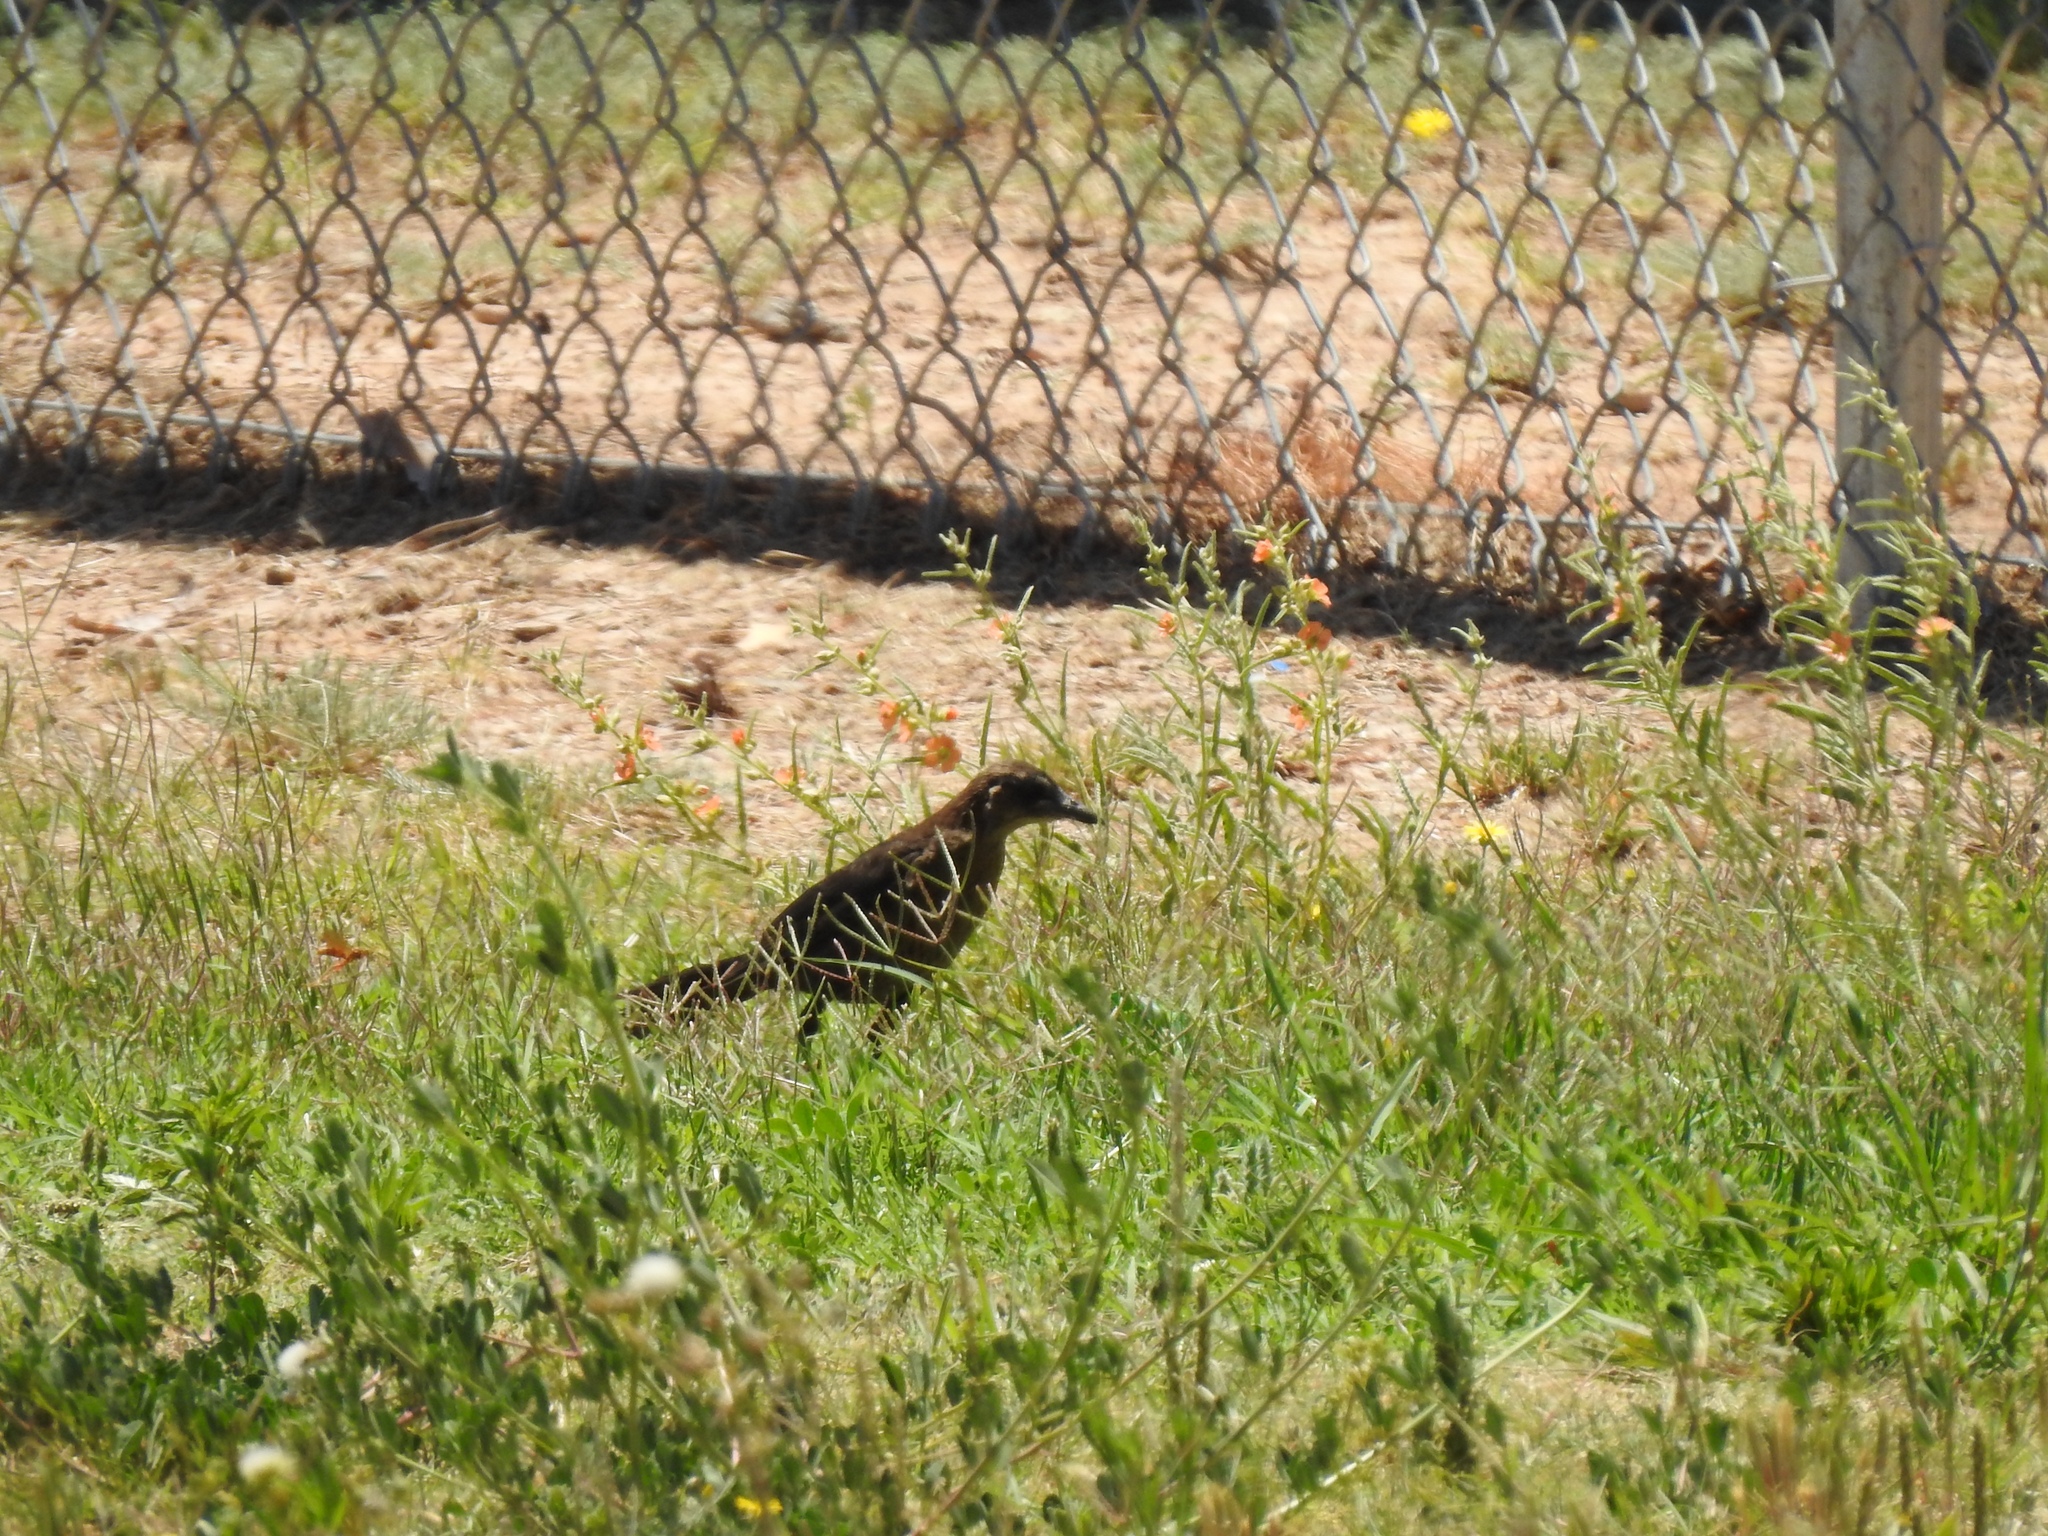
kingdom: Animalia
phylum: Chordata
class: Aves
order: Passeriformes
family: Icteridae
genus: Quiscalus
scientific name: Quiscalus mexicanus
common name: Great-tailed grackle
